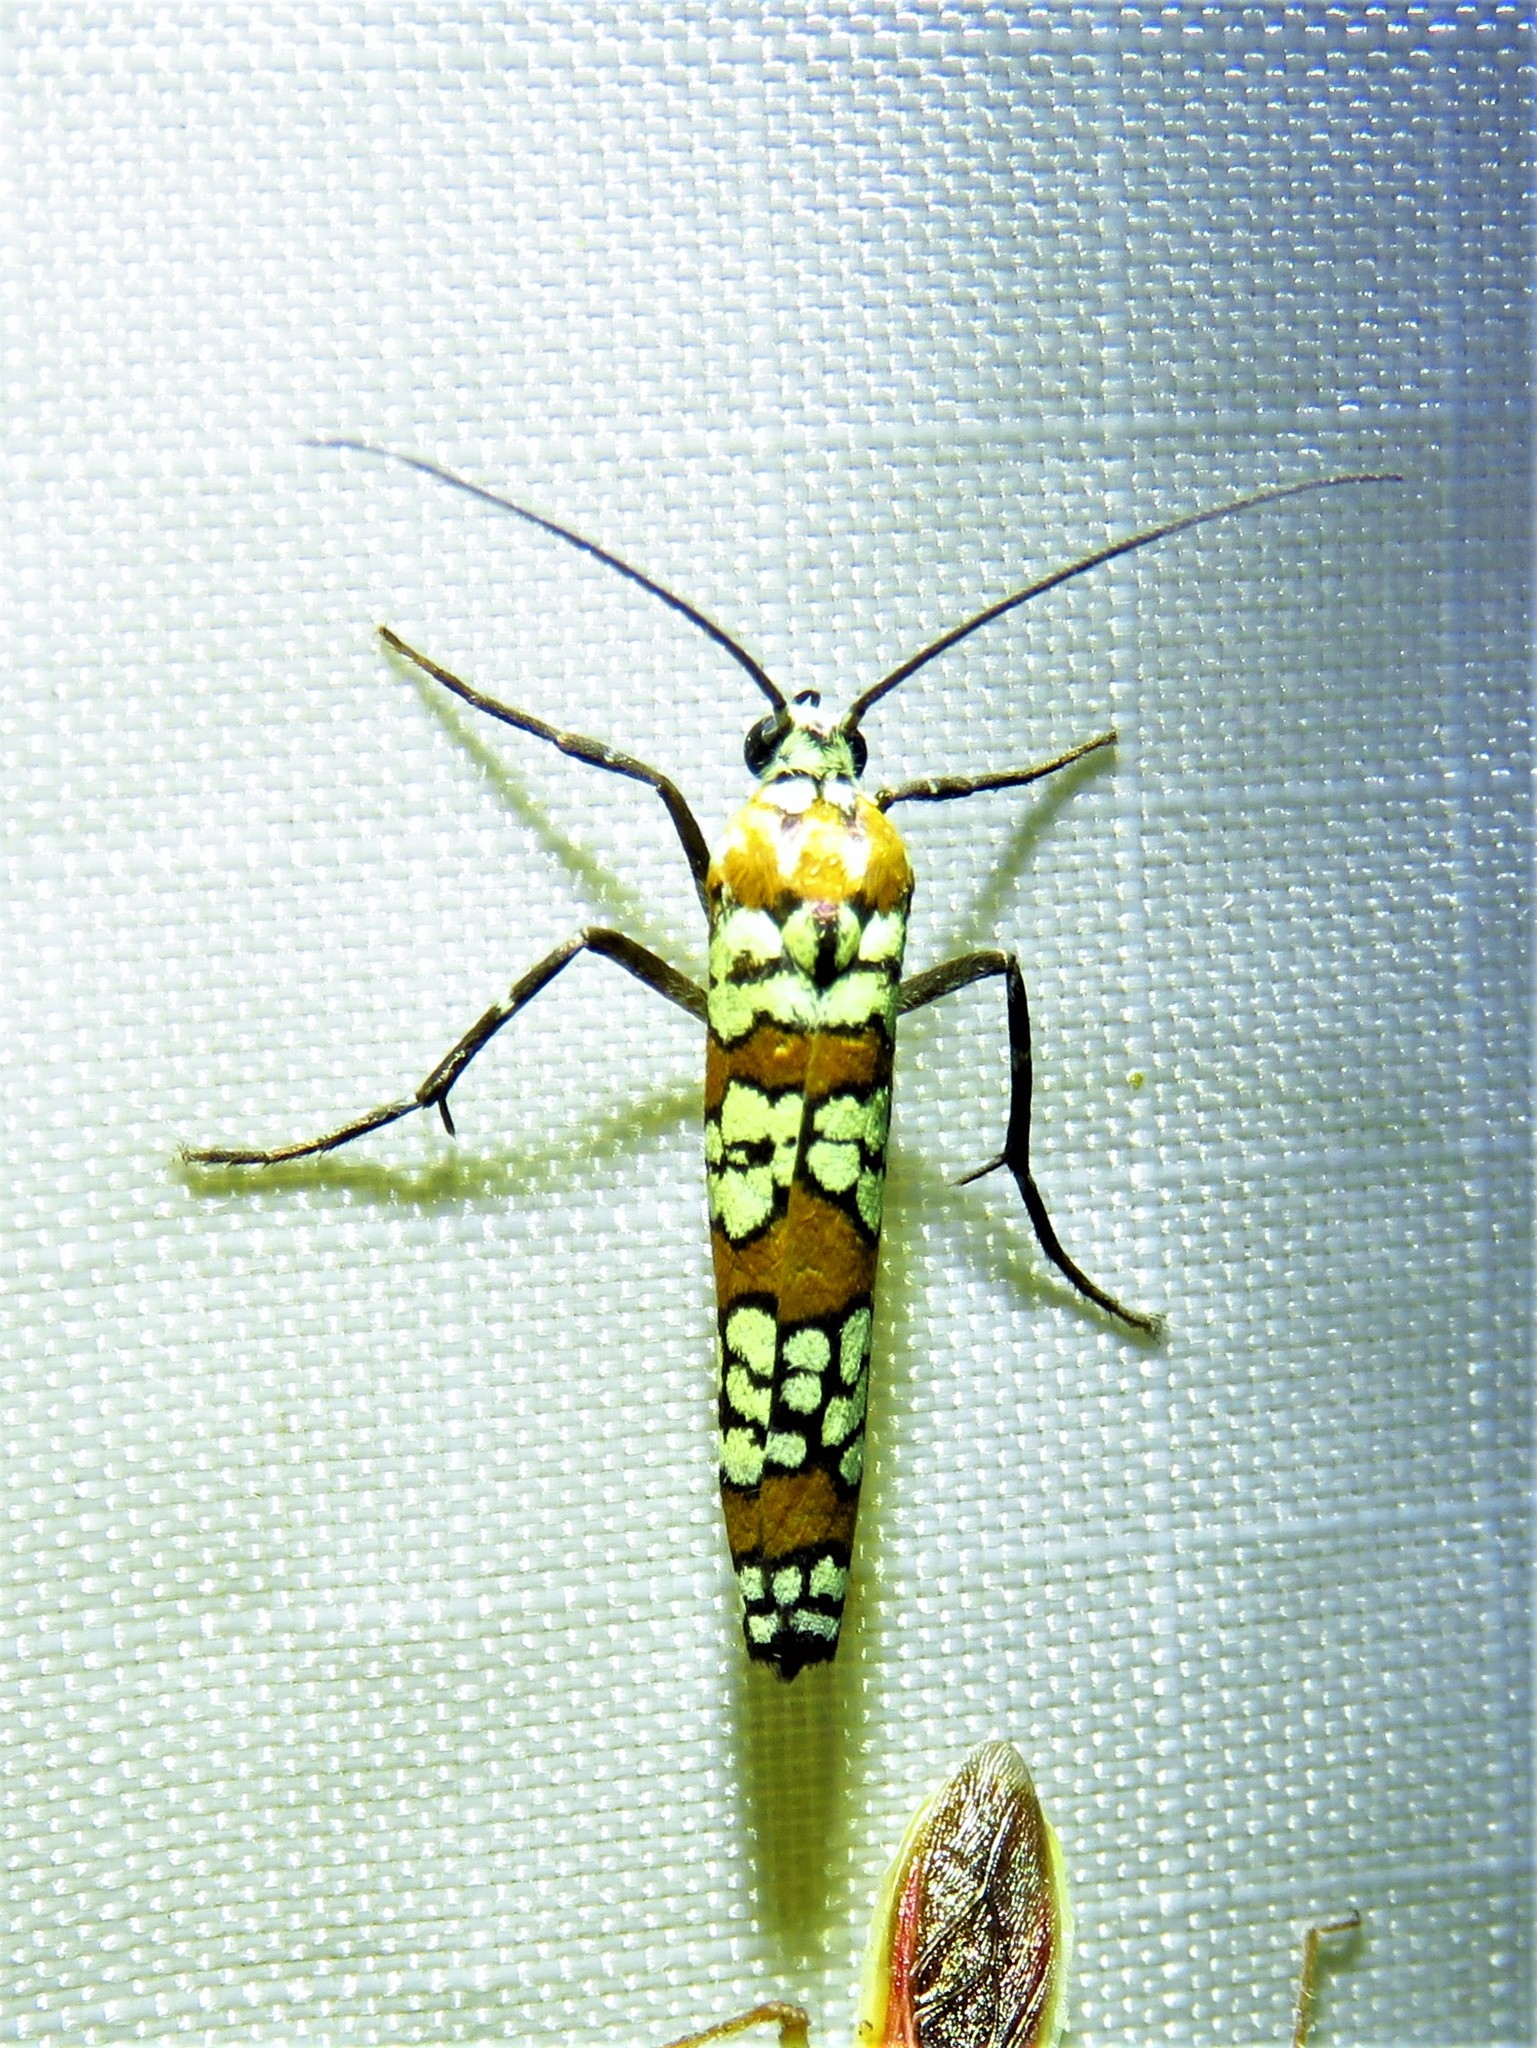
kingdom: Animalia
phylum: Arthropoda
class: Insecta
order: Lepidoptera
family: Attevidae
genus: Atteva
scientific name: Atteva punctella
